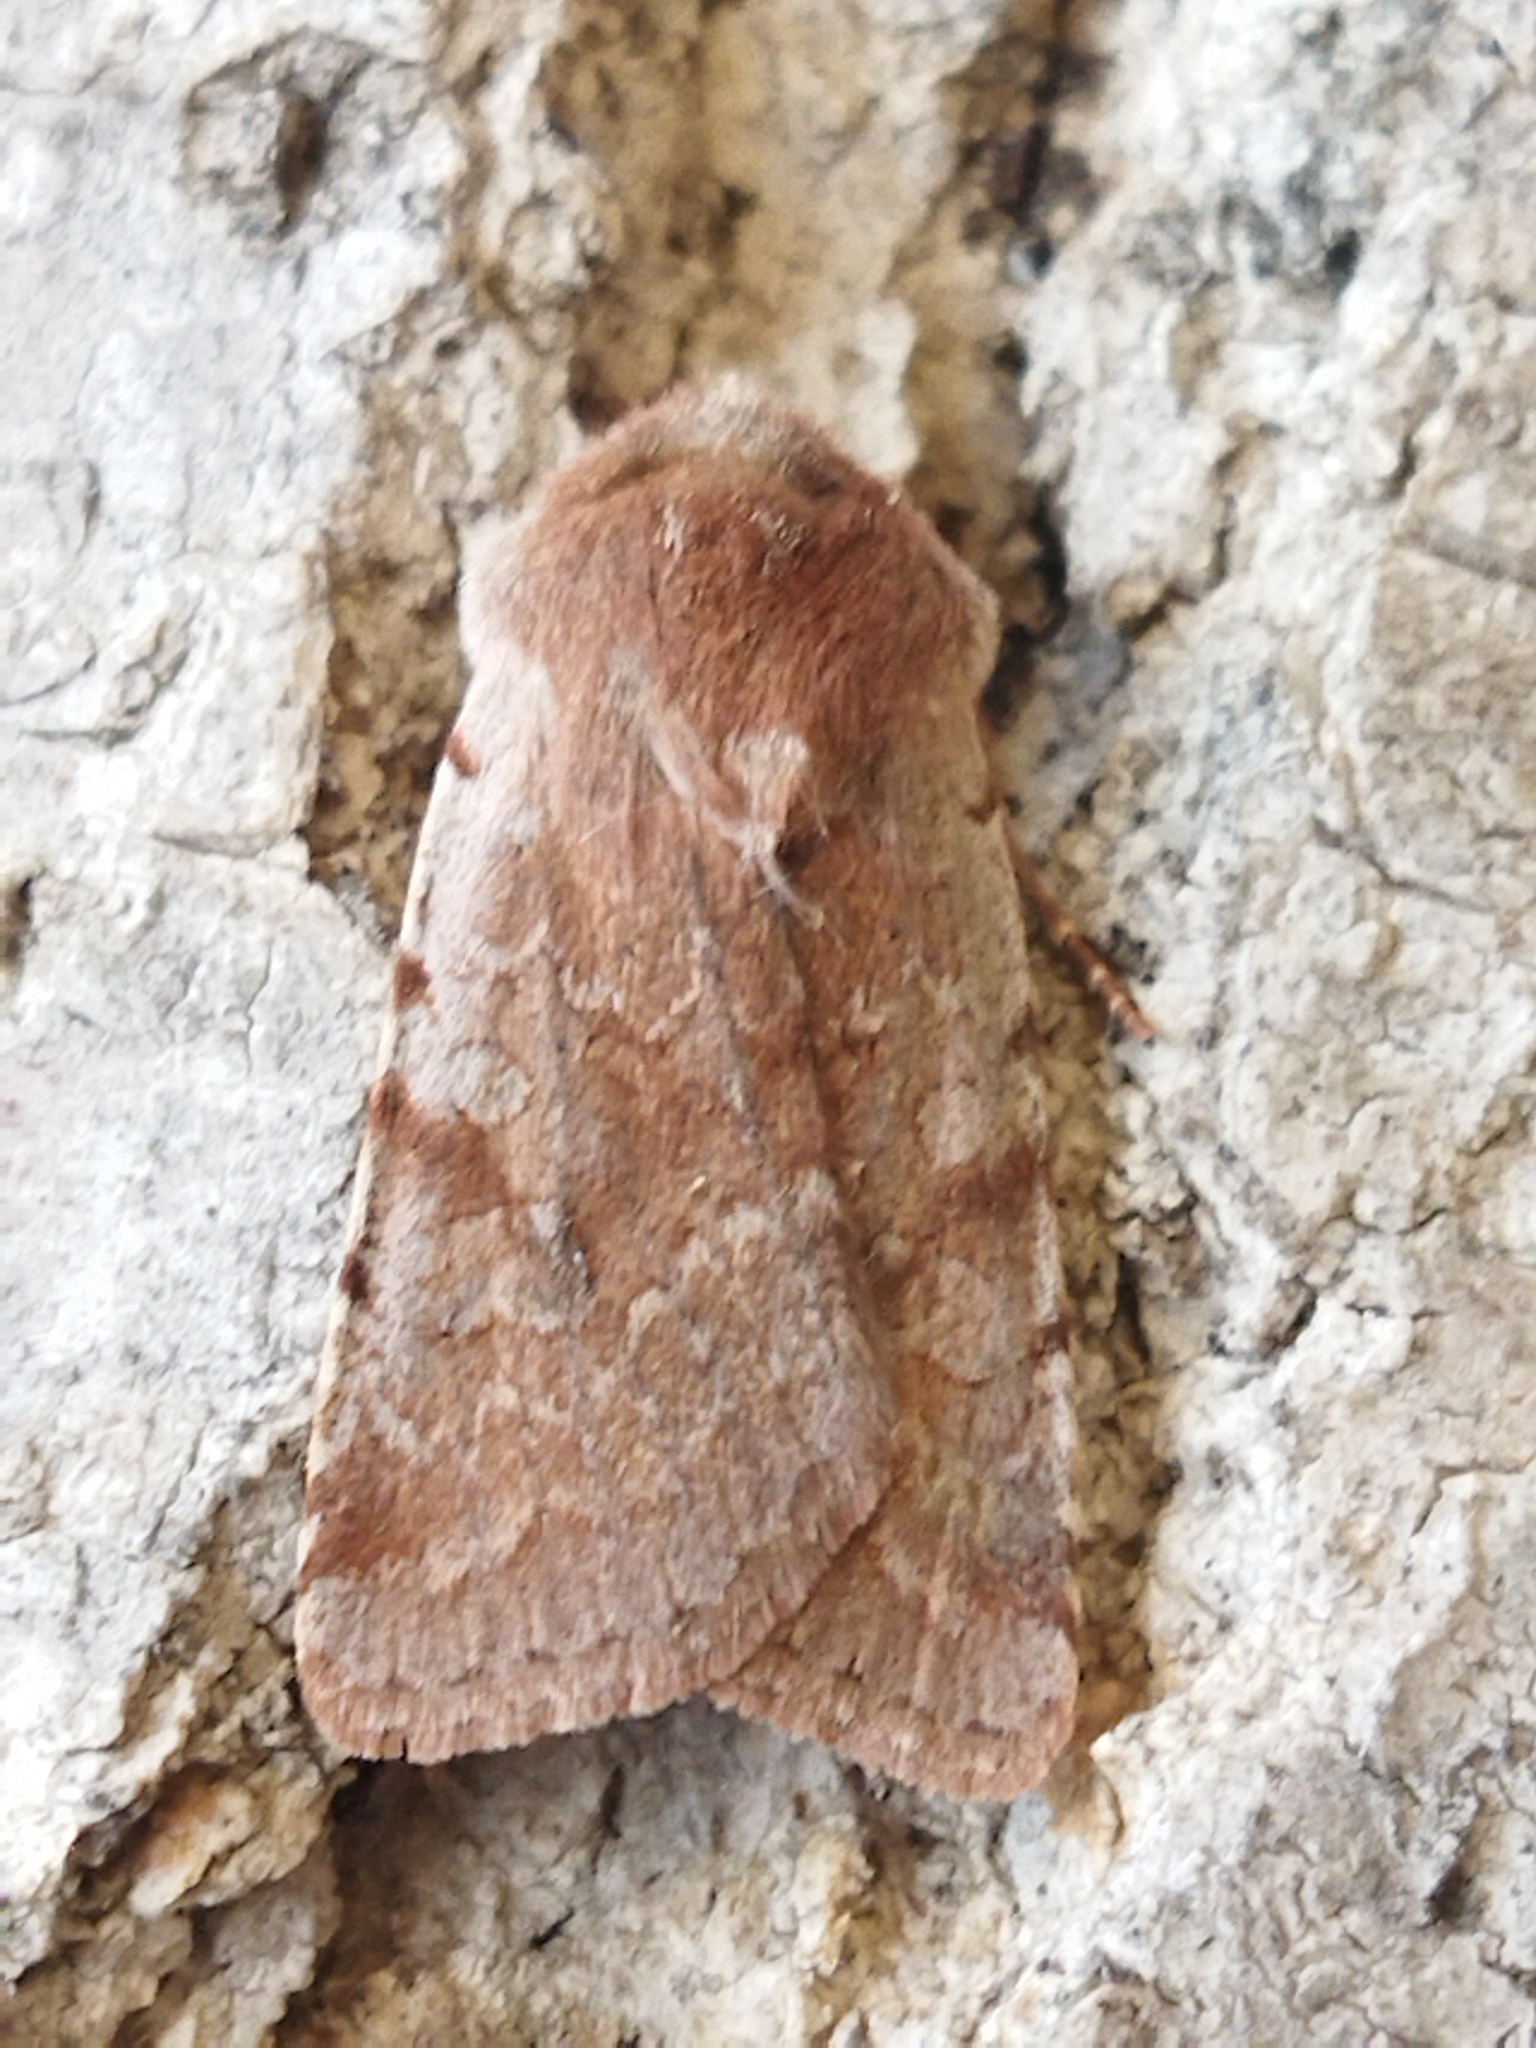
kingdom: Animalia
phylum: Arthropoda
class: Insecta
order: Lepidoptera
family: Noctuidae
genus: Cerastis
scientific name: Cerastis rubricosa
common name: Red chestnut
